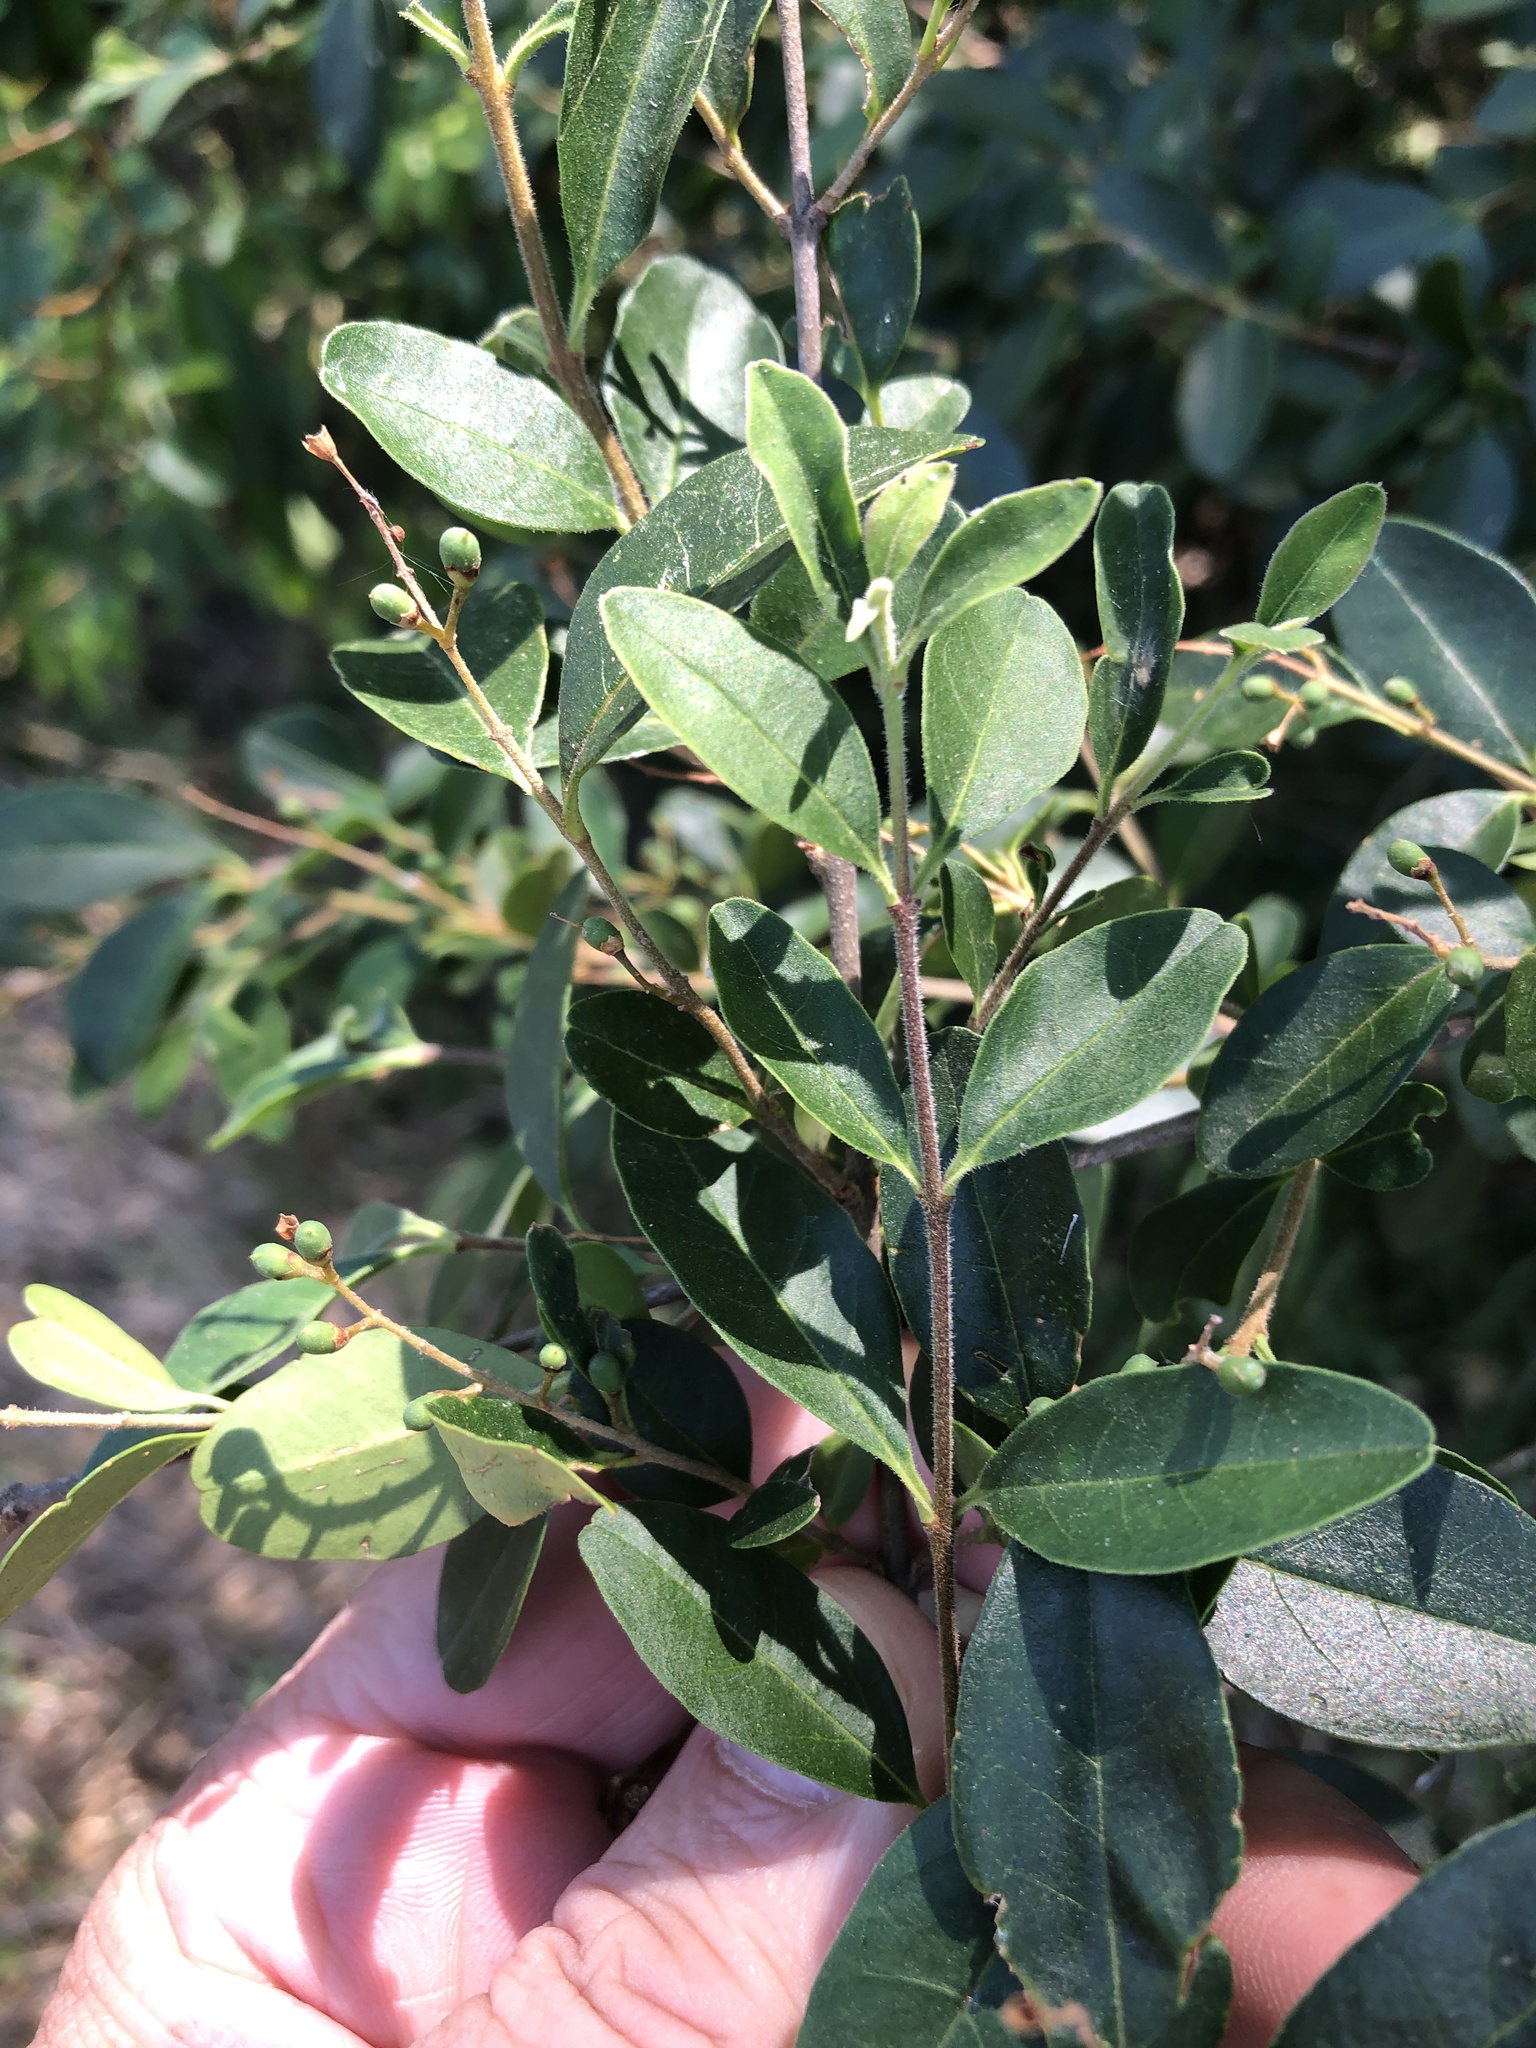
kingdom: Plantae
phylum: Tracheophyta
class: Magnoliopsida
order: Lamiales
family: Oleaceae
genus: Ligustrum
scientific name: Ligustrum sinense
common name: Chinese privet
